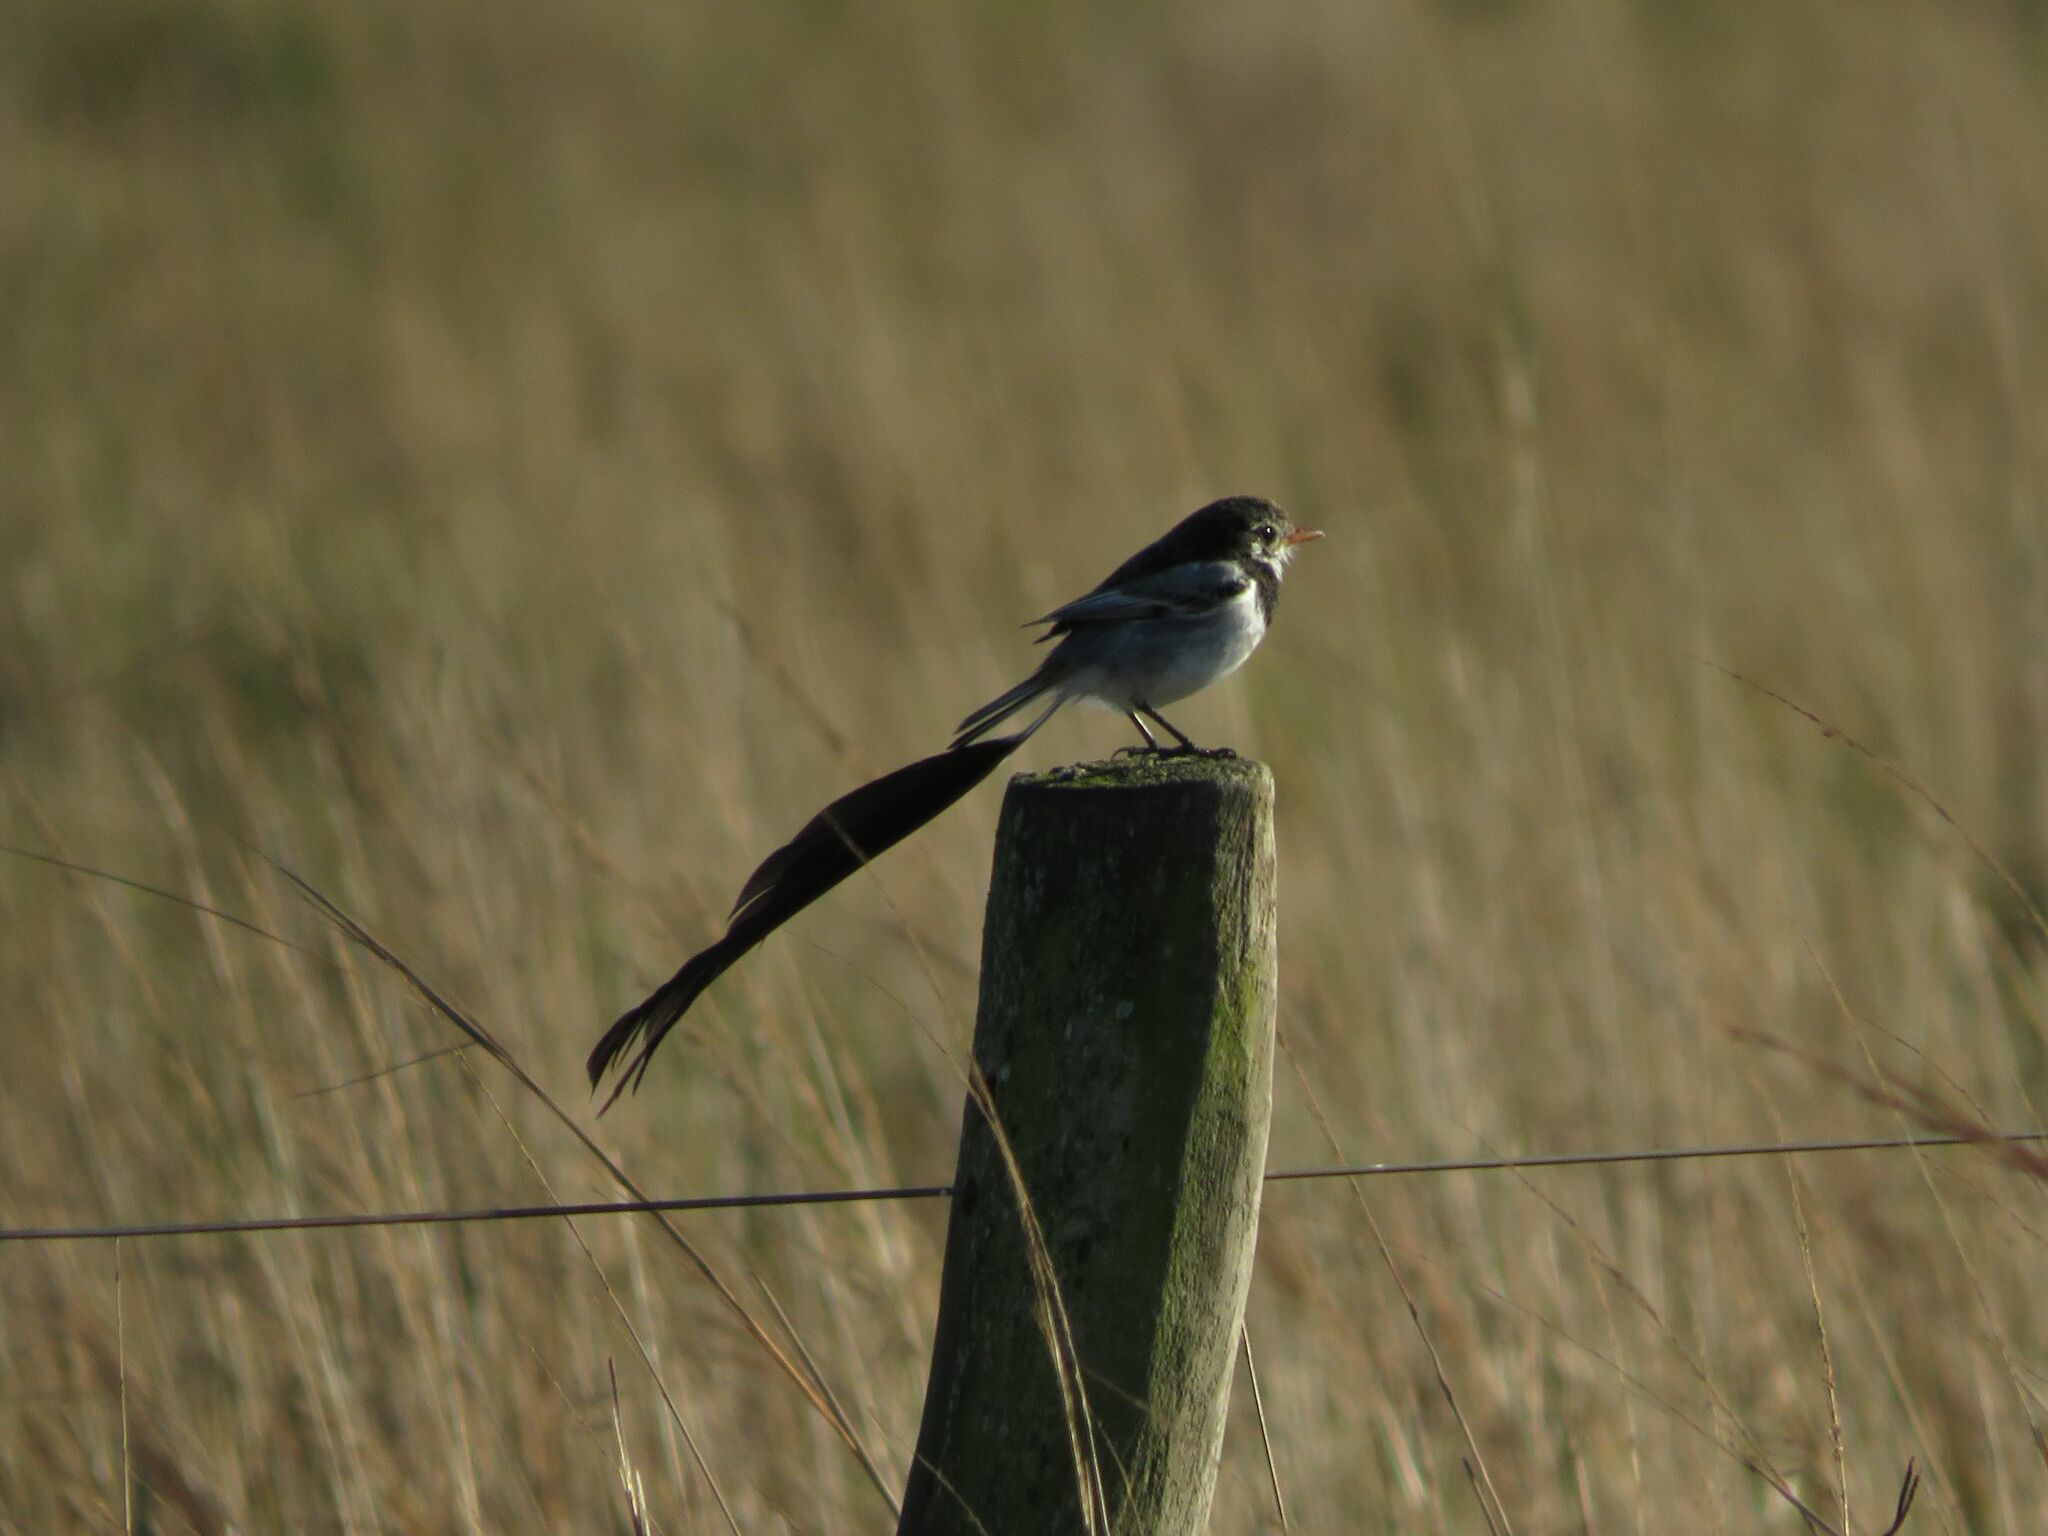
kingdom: Animalia
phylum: Chordata
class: Aves
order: Passeriformes
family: Tyrannidae
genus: Alectrurus
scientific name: Alectrurus risora
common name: Strange-tailed tyrant
